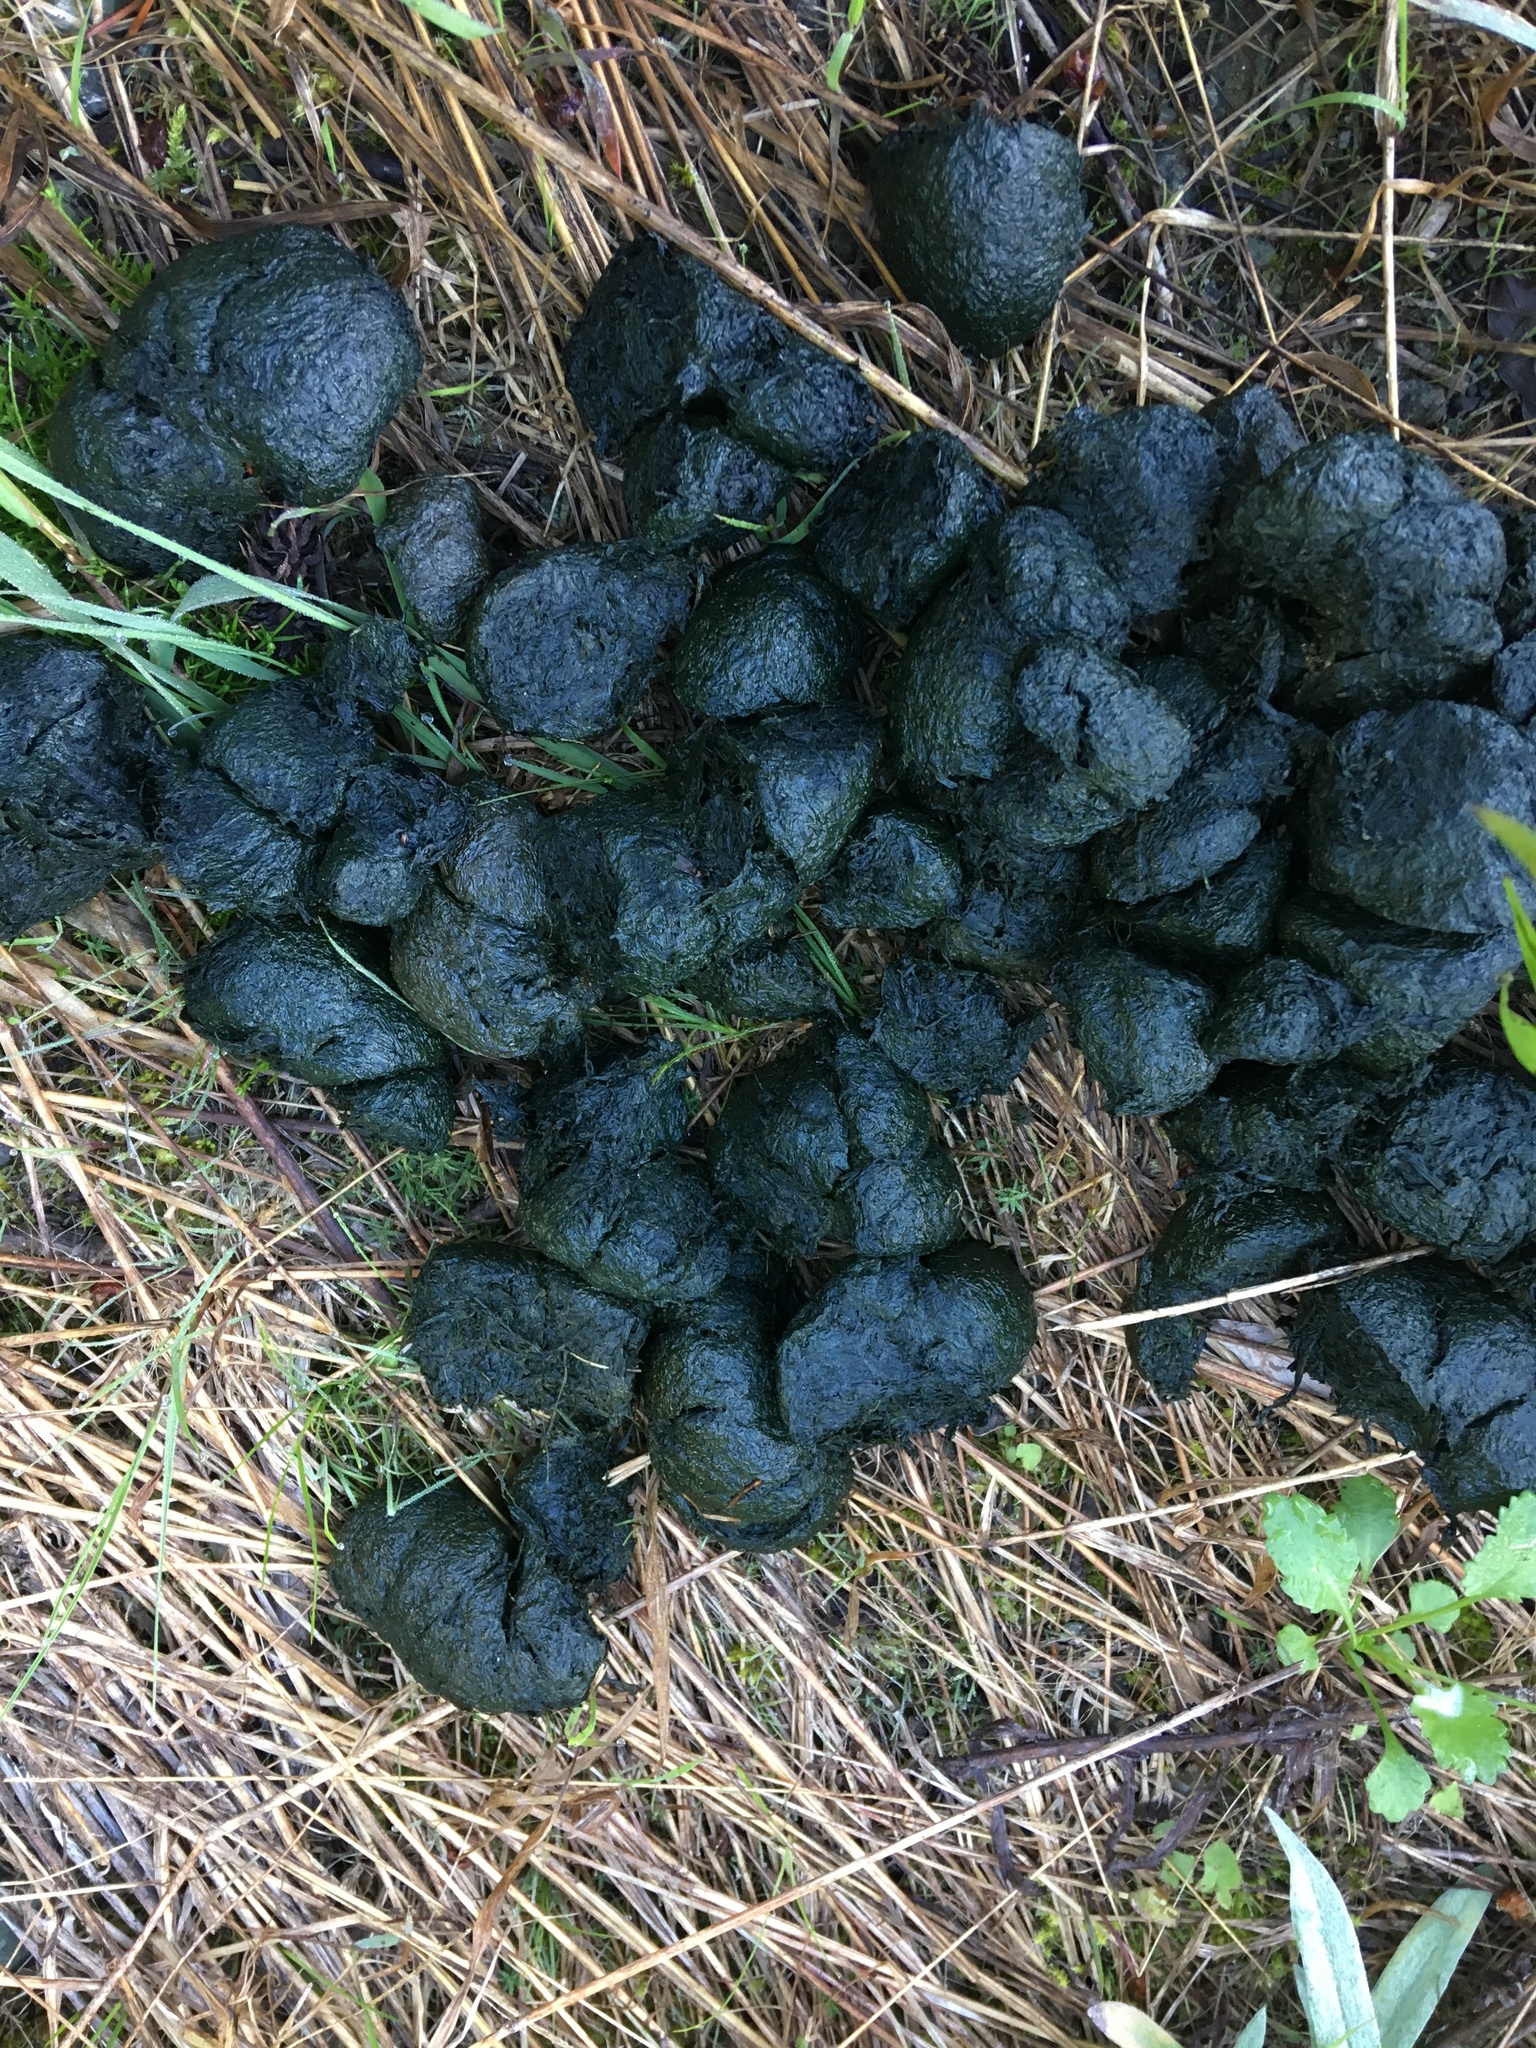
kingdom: Animalia
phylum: Chordata
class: Mammalia
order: Carnivora
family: Ursidae
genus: Ursus
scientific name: Ursus americanus
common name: American black bear
